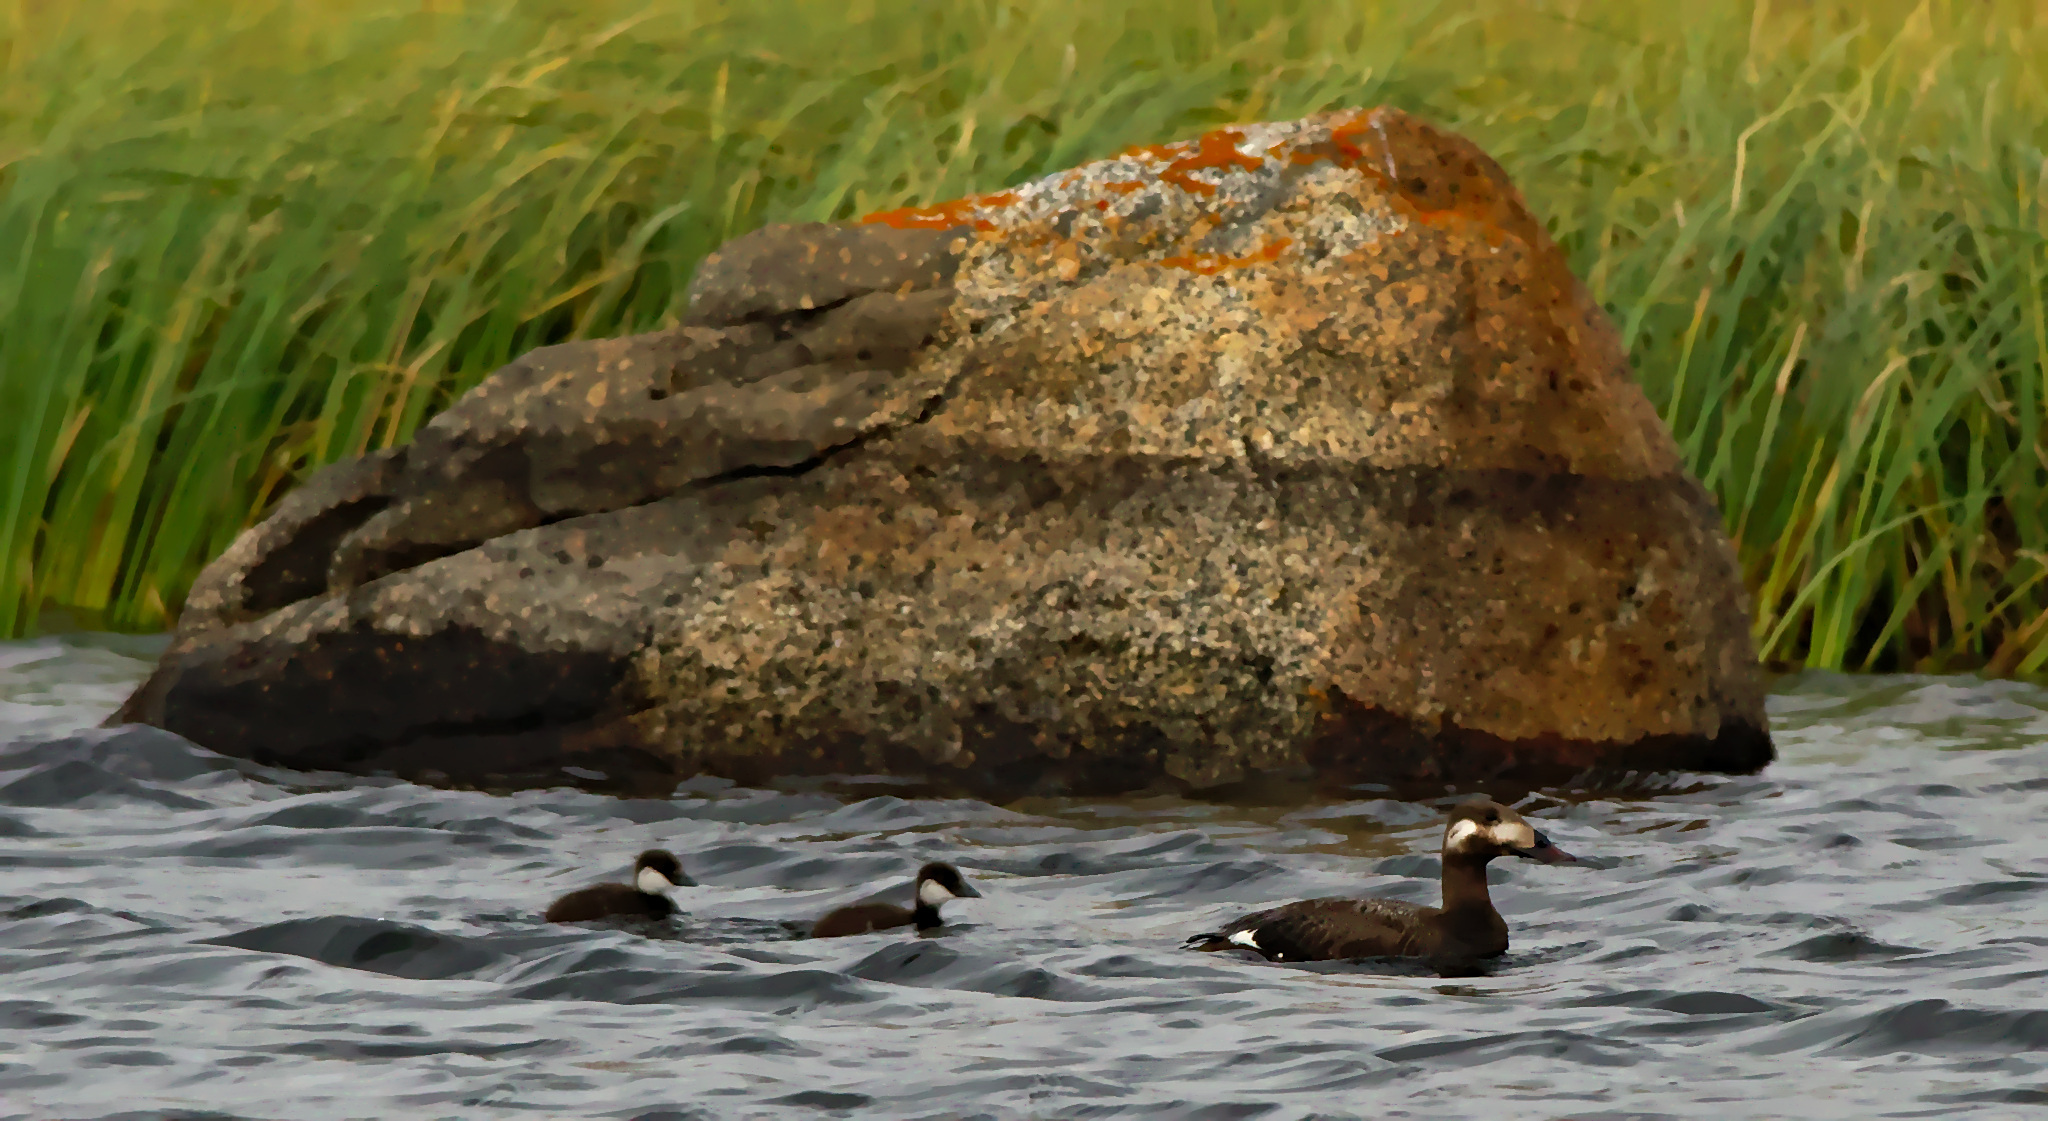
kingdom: Animalia
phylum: Chordata
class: Aves
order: Anseriformes
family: Anatidae
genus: Melanitta
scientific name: Melanitta stejnegeri
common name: Stejneger's scoter
